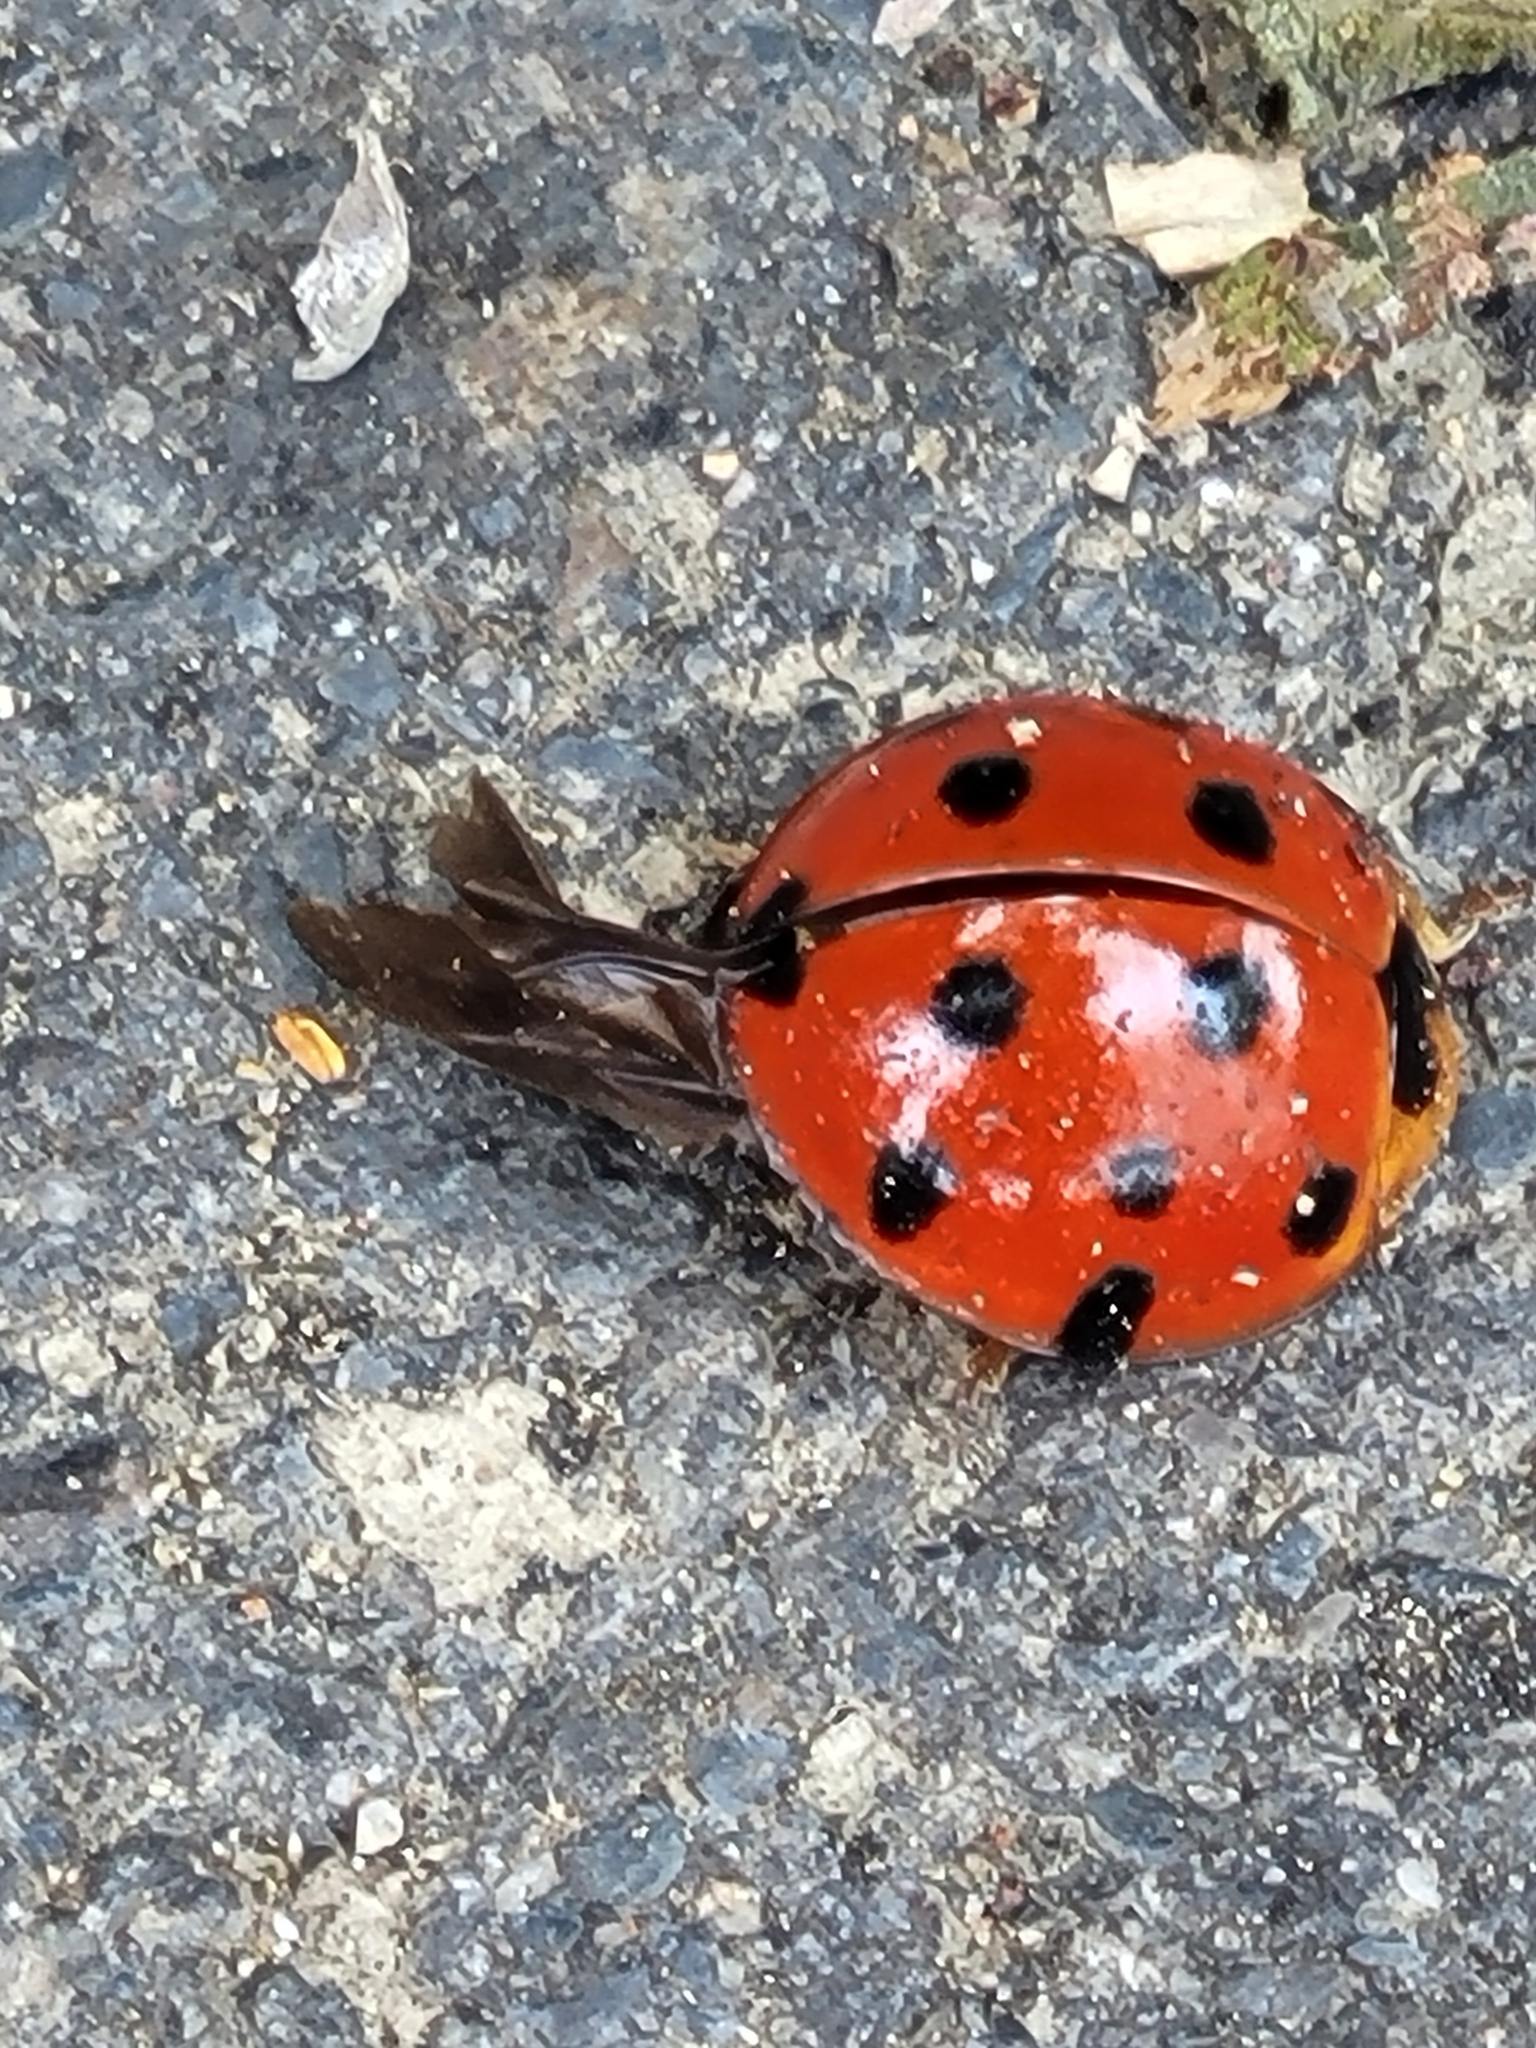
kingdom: Animalia
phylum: Arthropoda
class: Insecta
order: Coleoptera
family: Coccinellidae
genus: Harmonia
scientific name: Harmonia dimidiata
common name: Ladybird beetle
